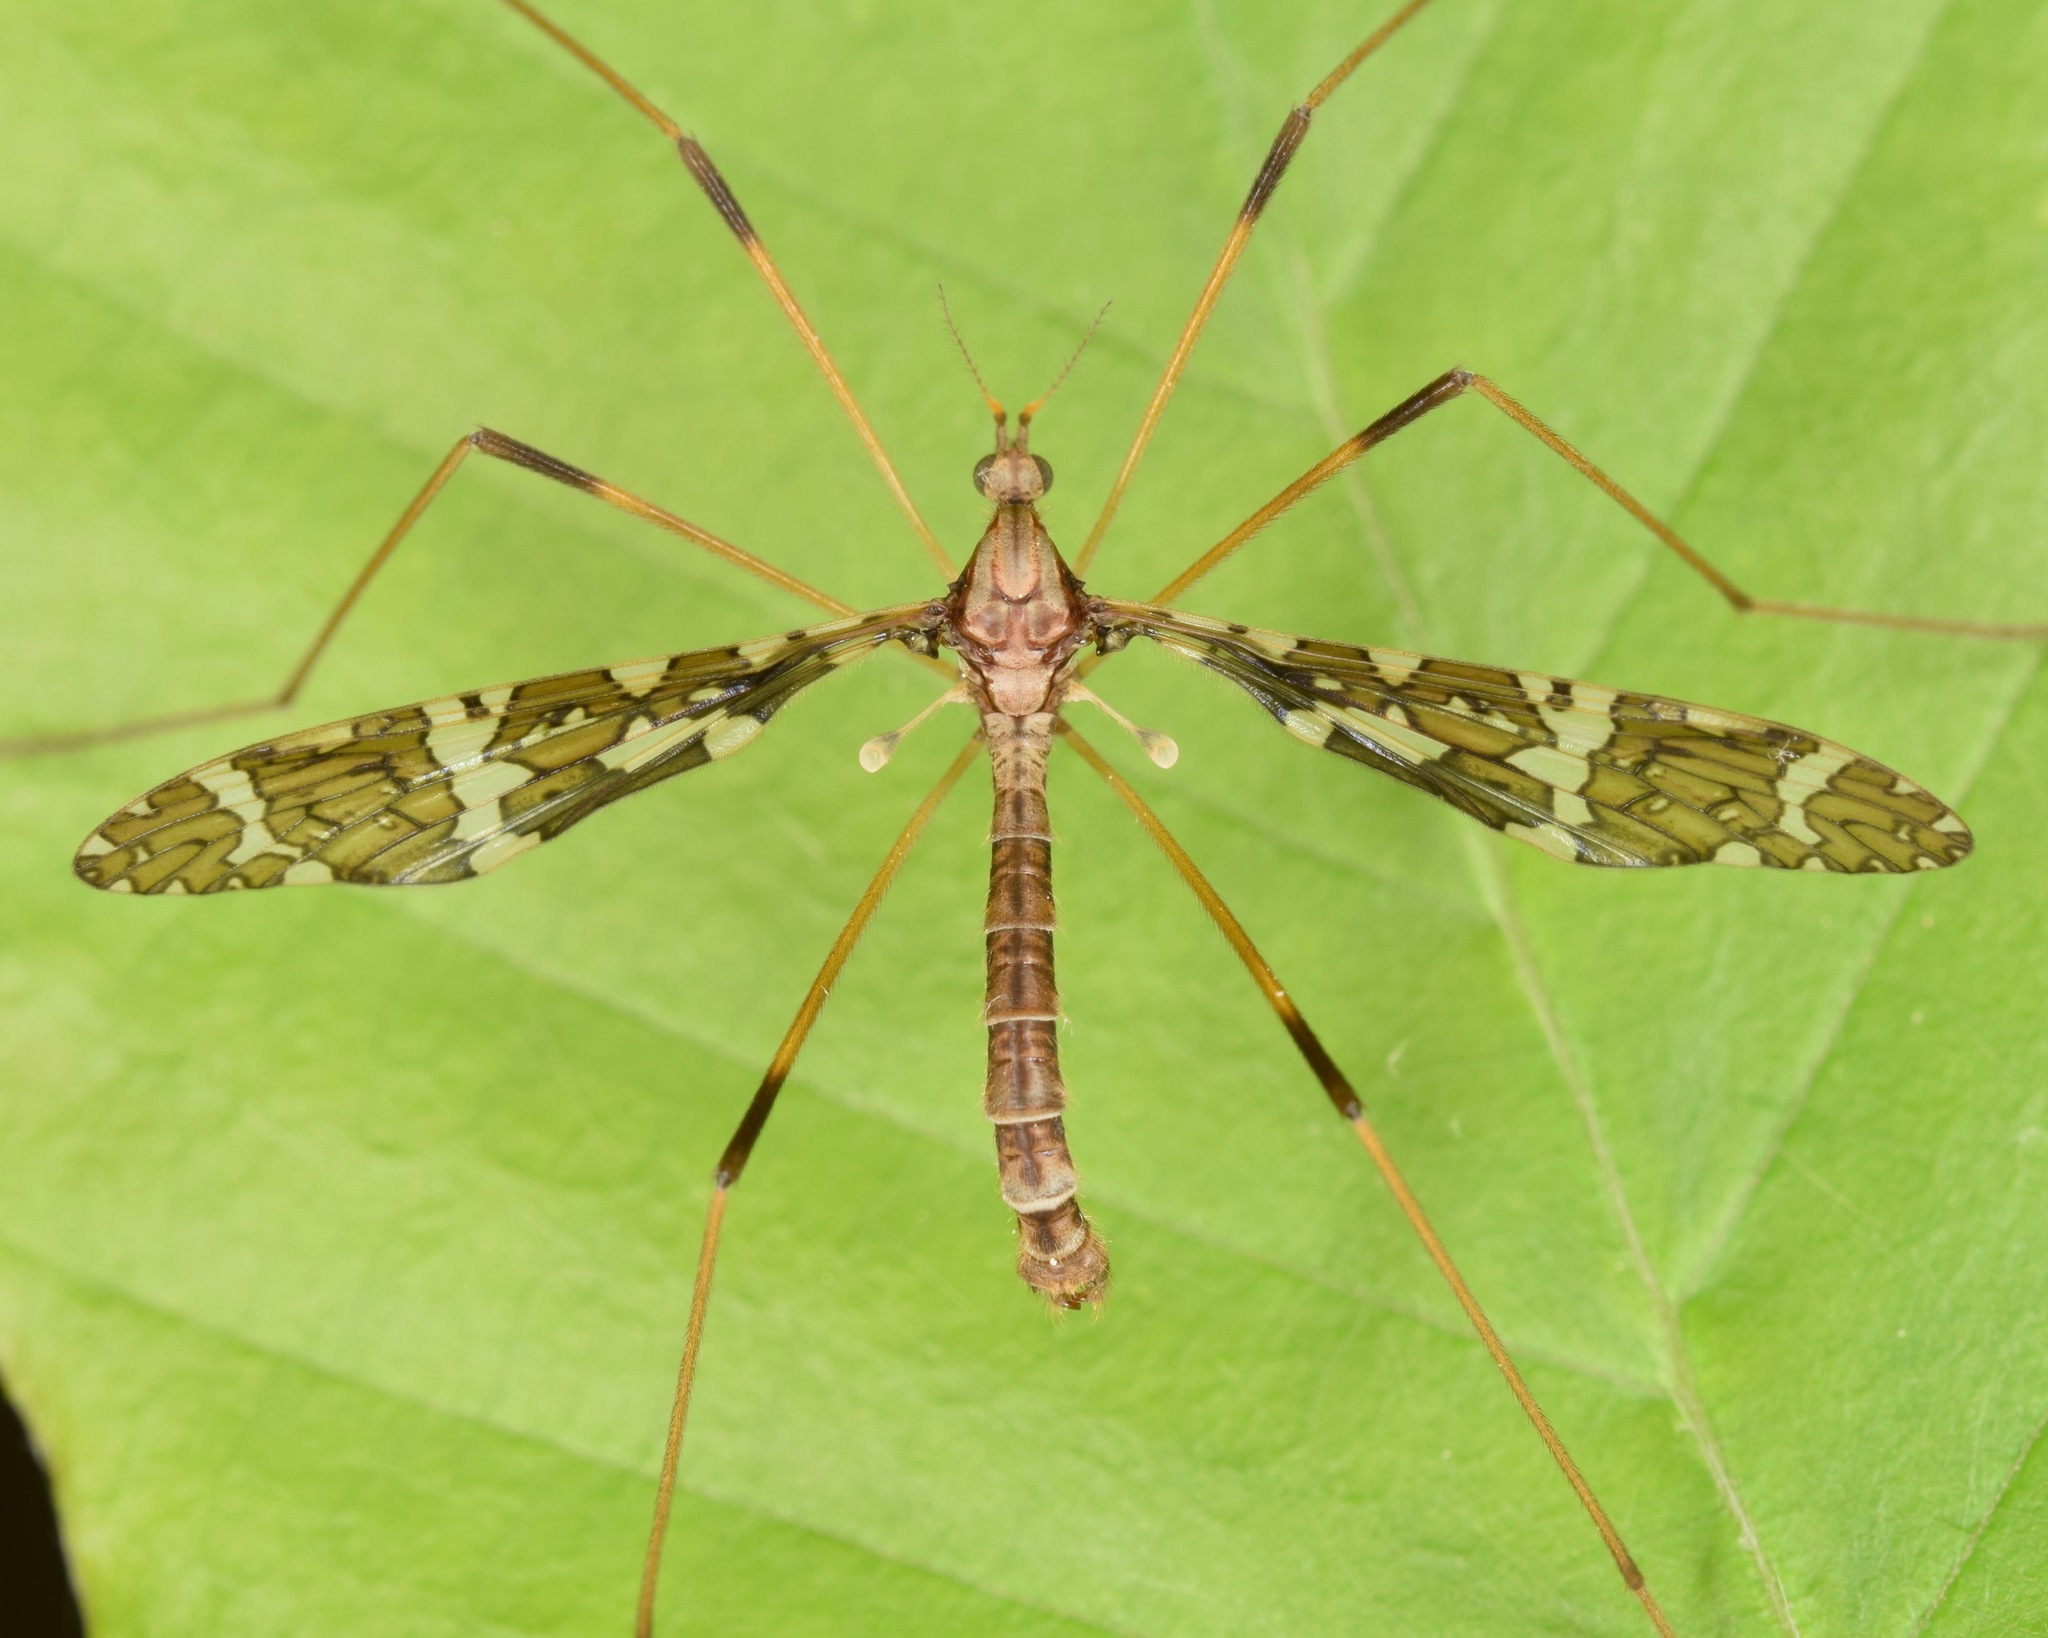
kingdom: Animalia
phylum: Arthropoda
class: Insecta
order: Diptera
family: Limoniidae
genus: Epiphragma
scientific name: Epiphragma fasciapenne
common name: Band-winged crane fly
